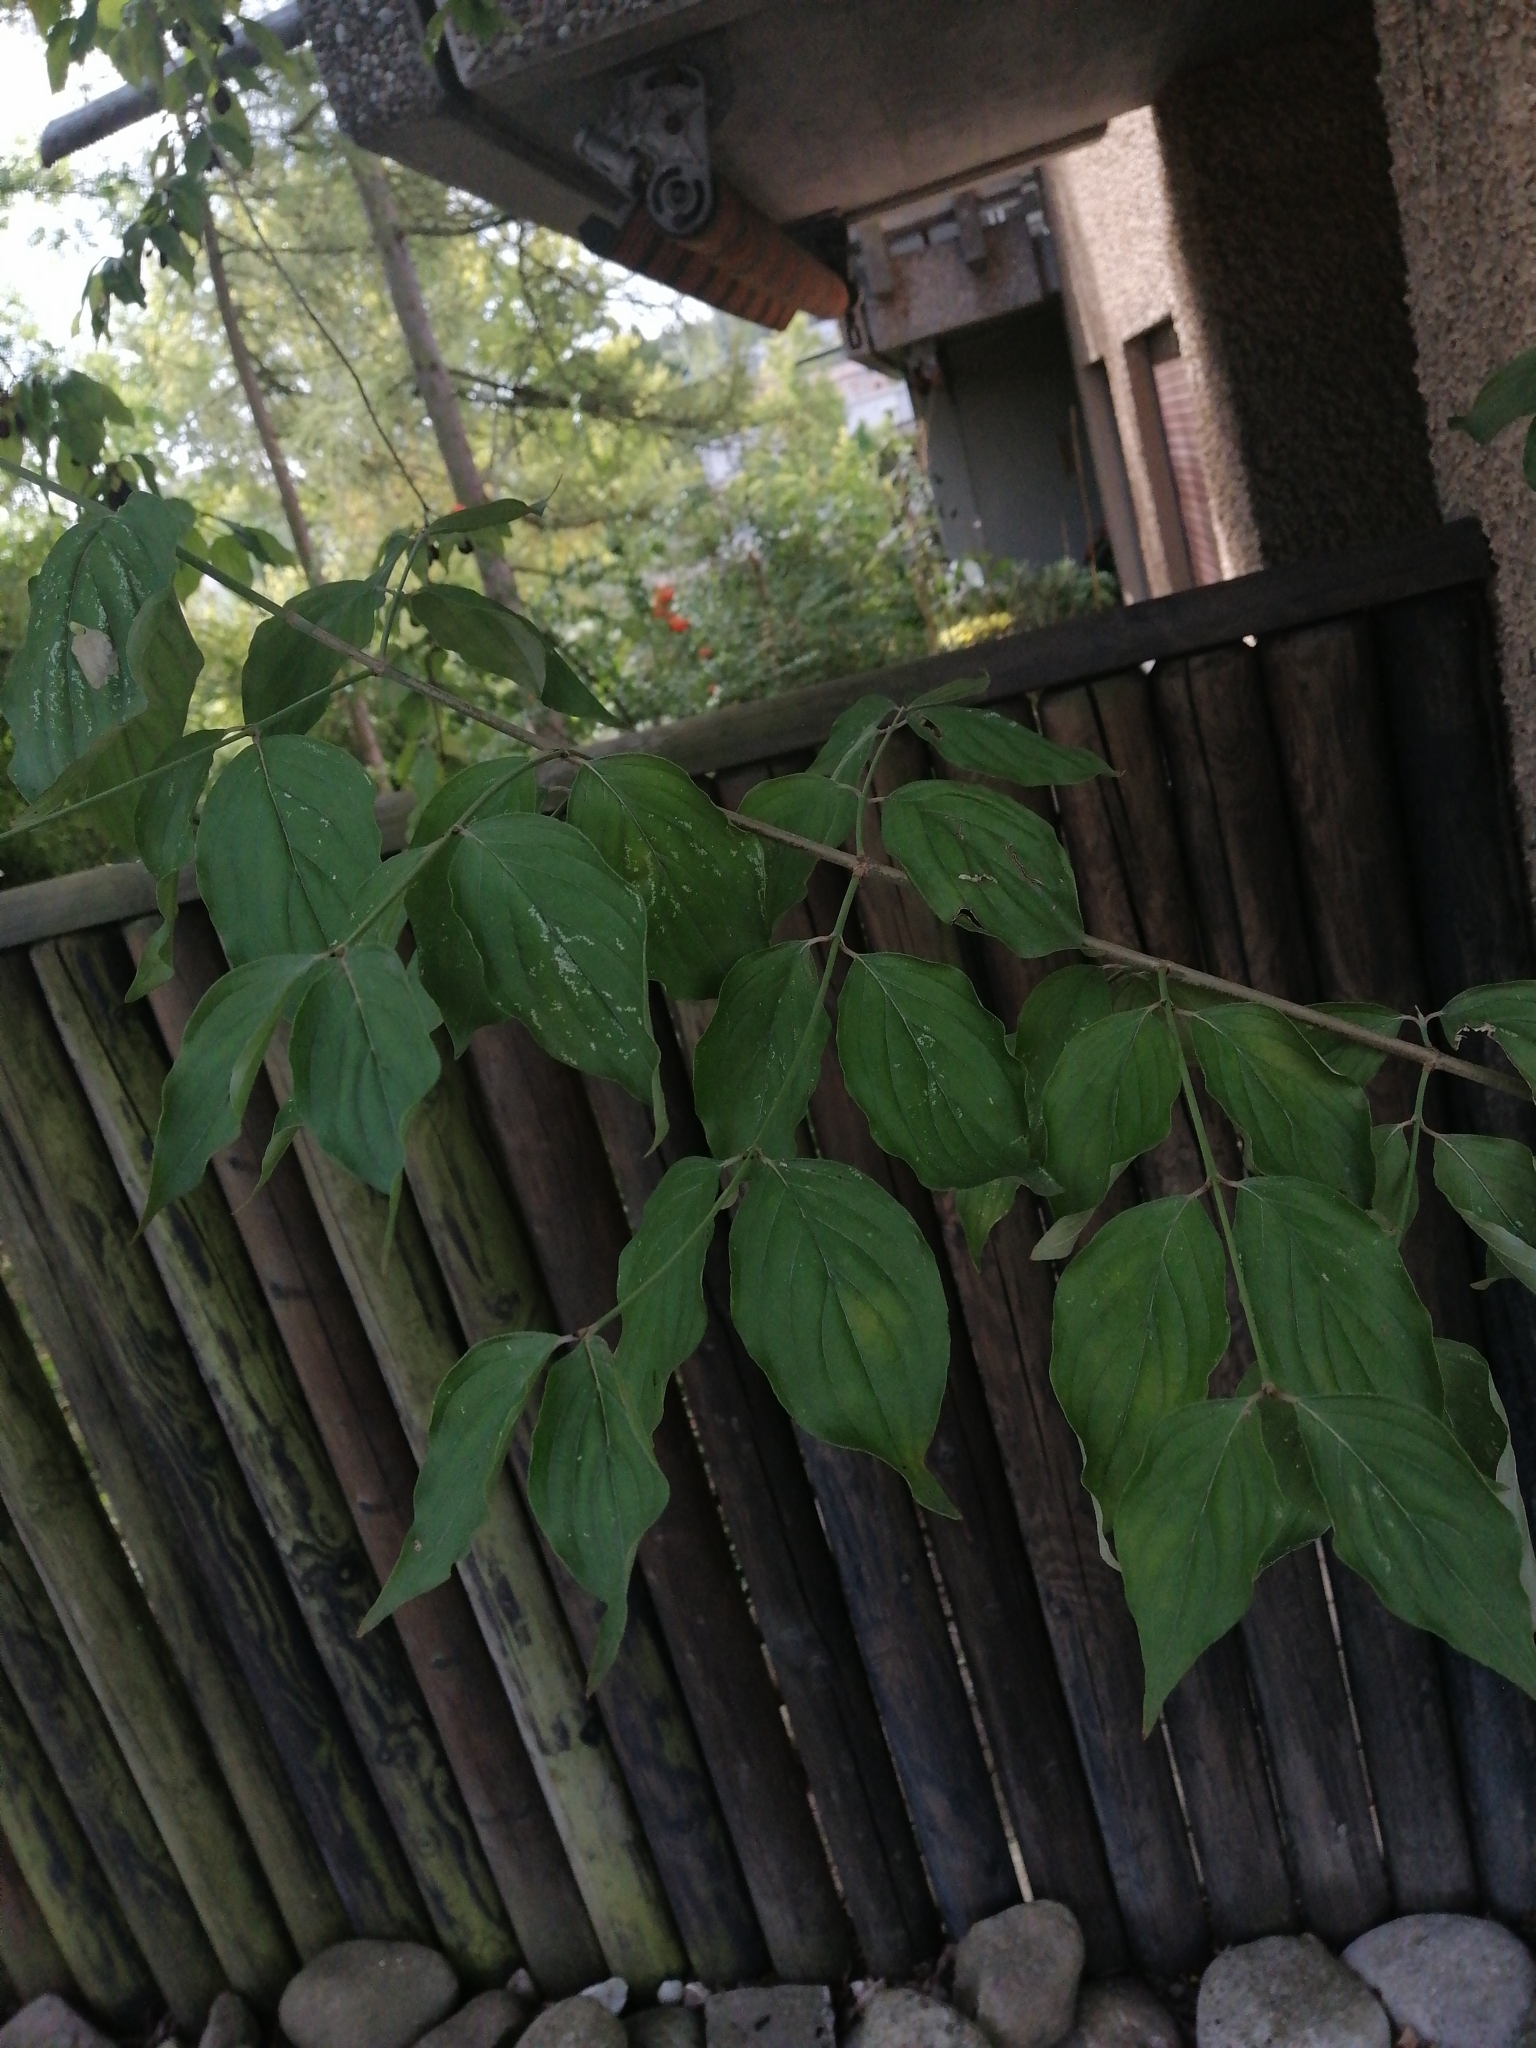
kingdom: Plantae
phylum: Tracheophyta
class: Magnoliopsida
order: Cornales
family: Cornaceae
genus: Cornus
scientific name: Cornus mas
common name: Cornelian-cherry
